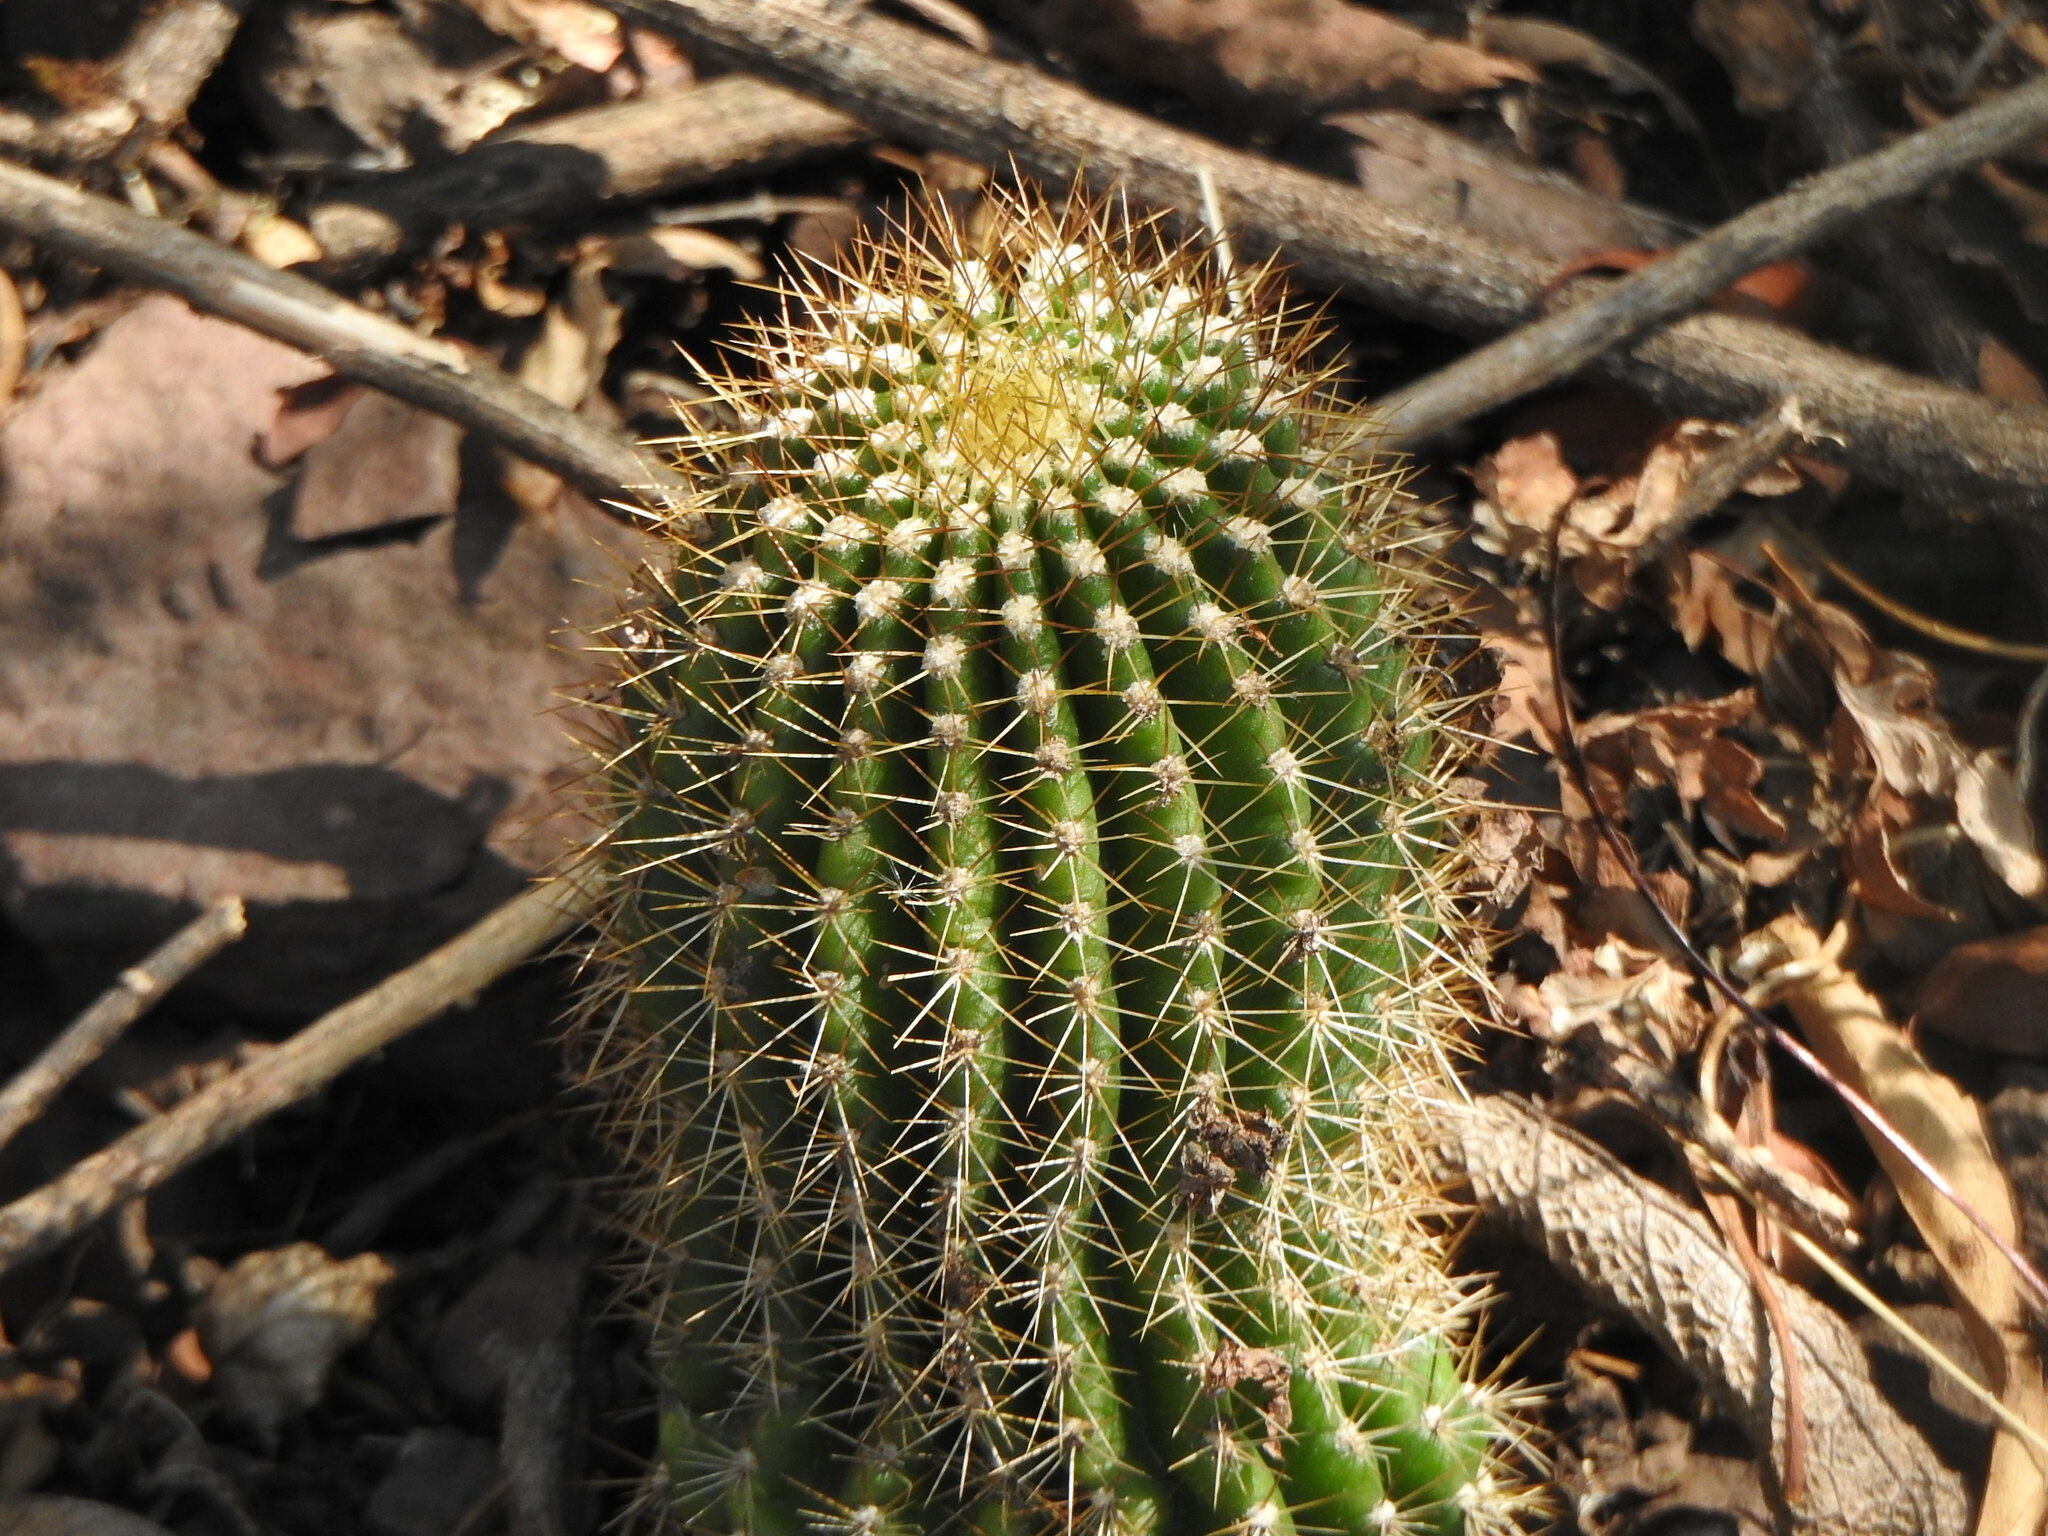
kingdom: Plantae
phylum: Tracheophyta
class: Magnoliopsida
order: Caryophyllales
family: Cactaceae
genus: Soehrensia
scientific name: Soehrensia schickendantzii
